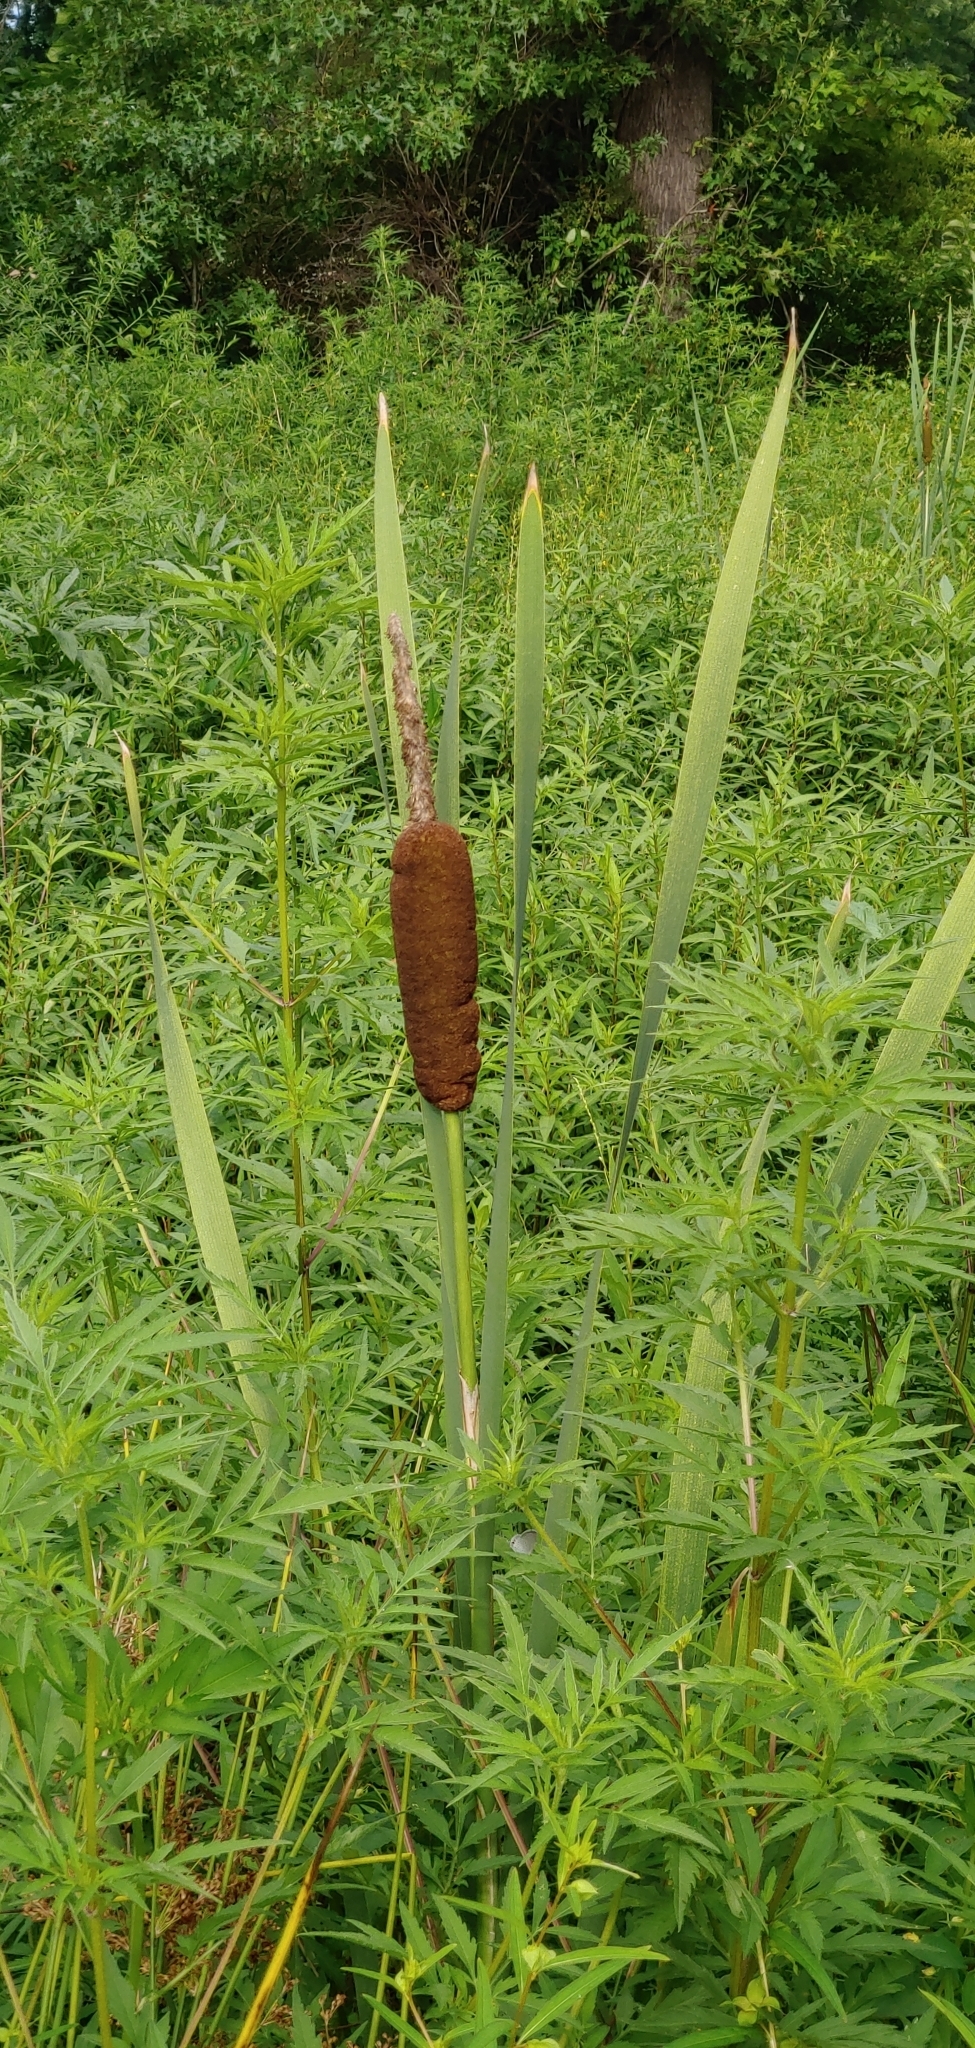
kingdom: Plantae
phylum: Tracheophyta
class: Liliopsida
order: Poales
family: Typhaceae
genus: Typha
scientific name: Typha latifolia
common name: Broadleaf cattail
